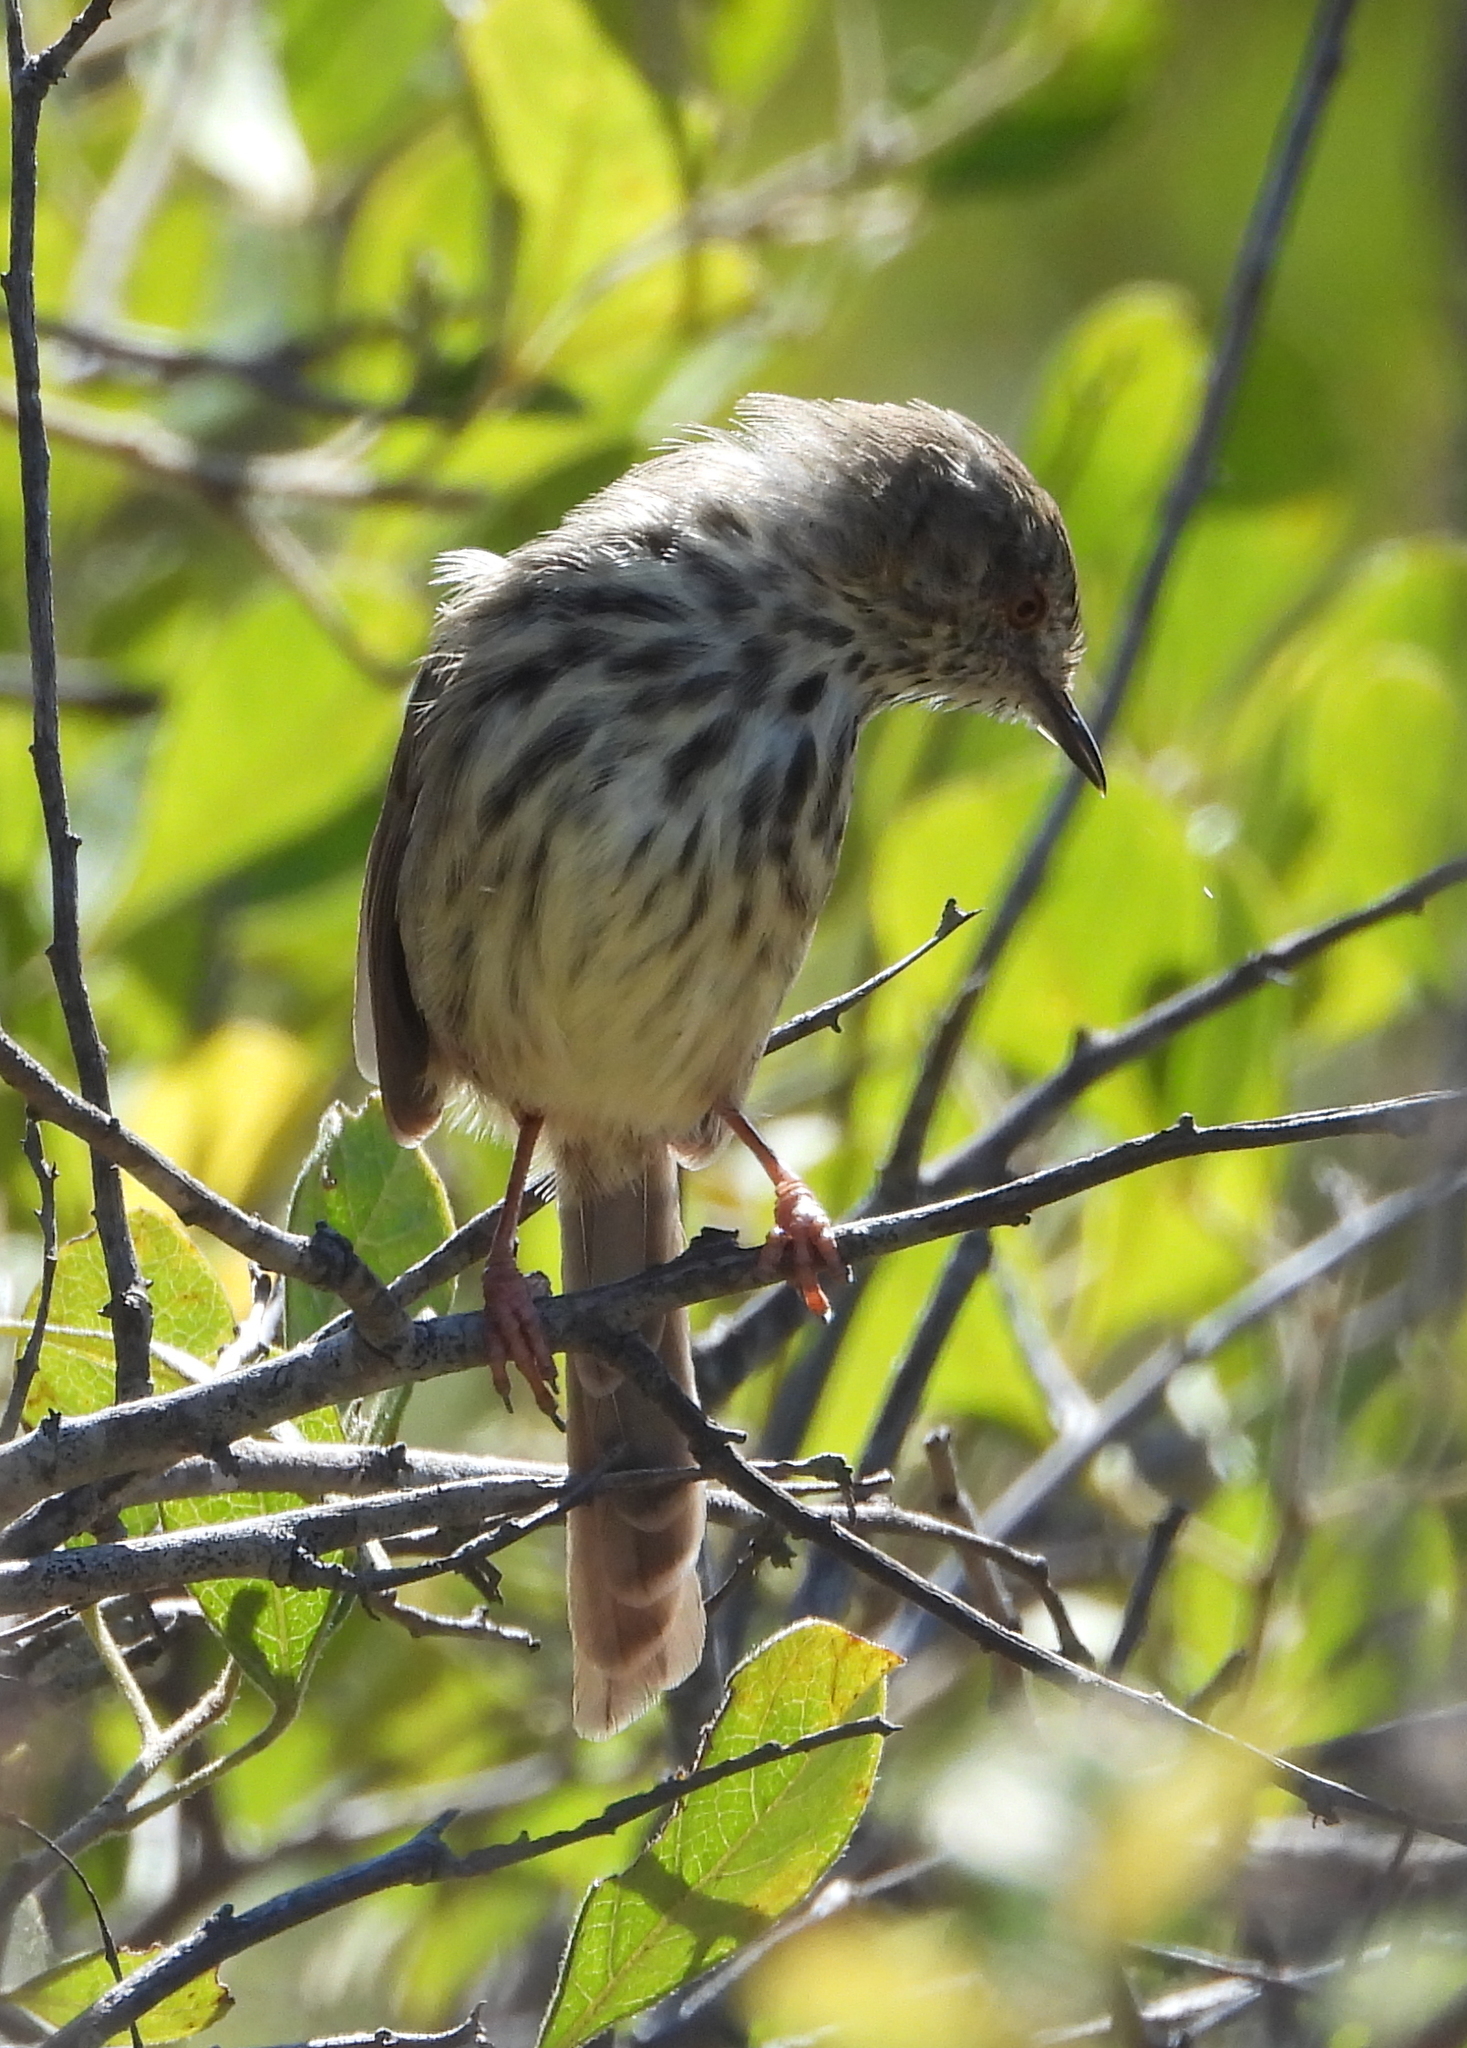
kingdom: Animalia
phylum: Chordata
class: Aves
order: Passeriformes
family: Cisticolidae
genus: Prinia
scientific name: Prinia maculosa
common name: Karoo prinia
